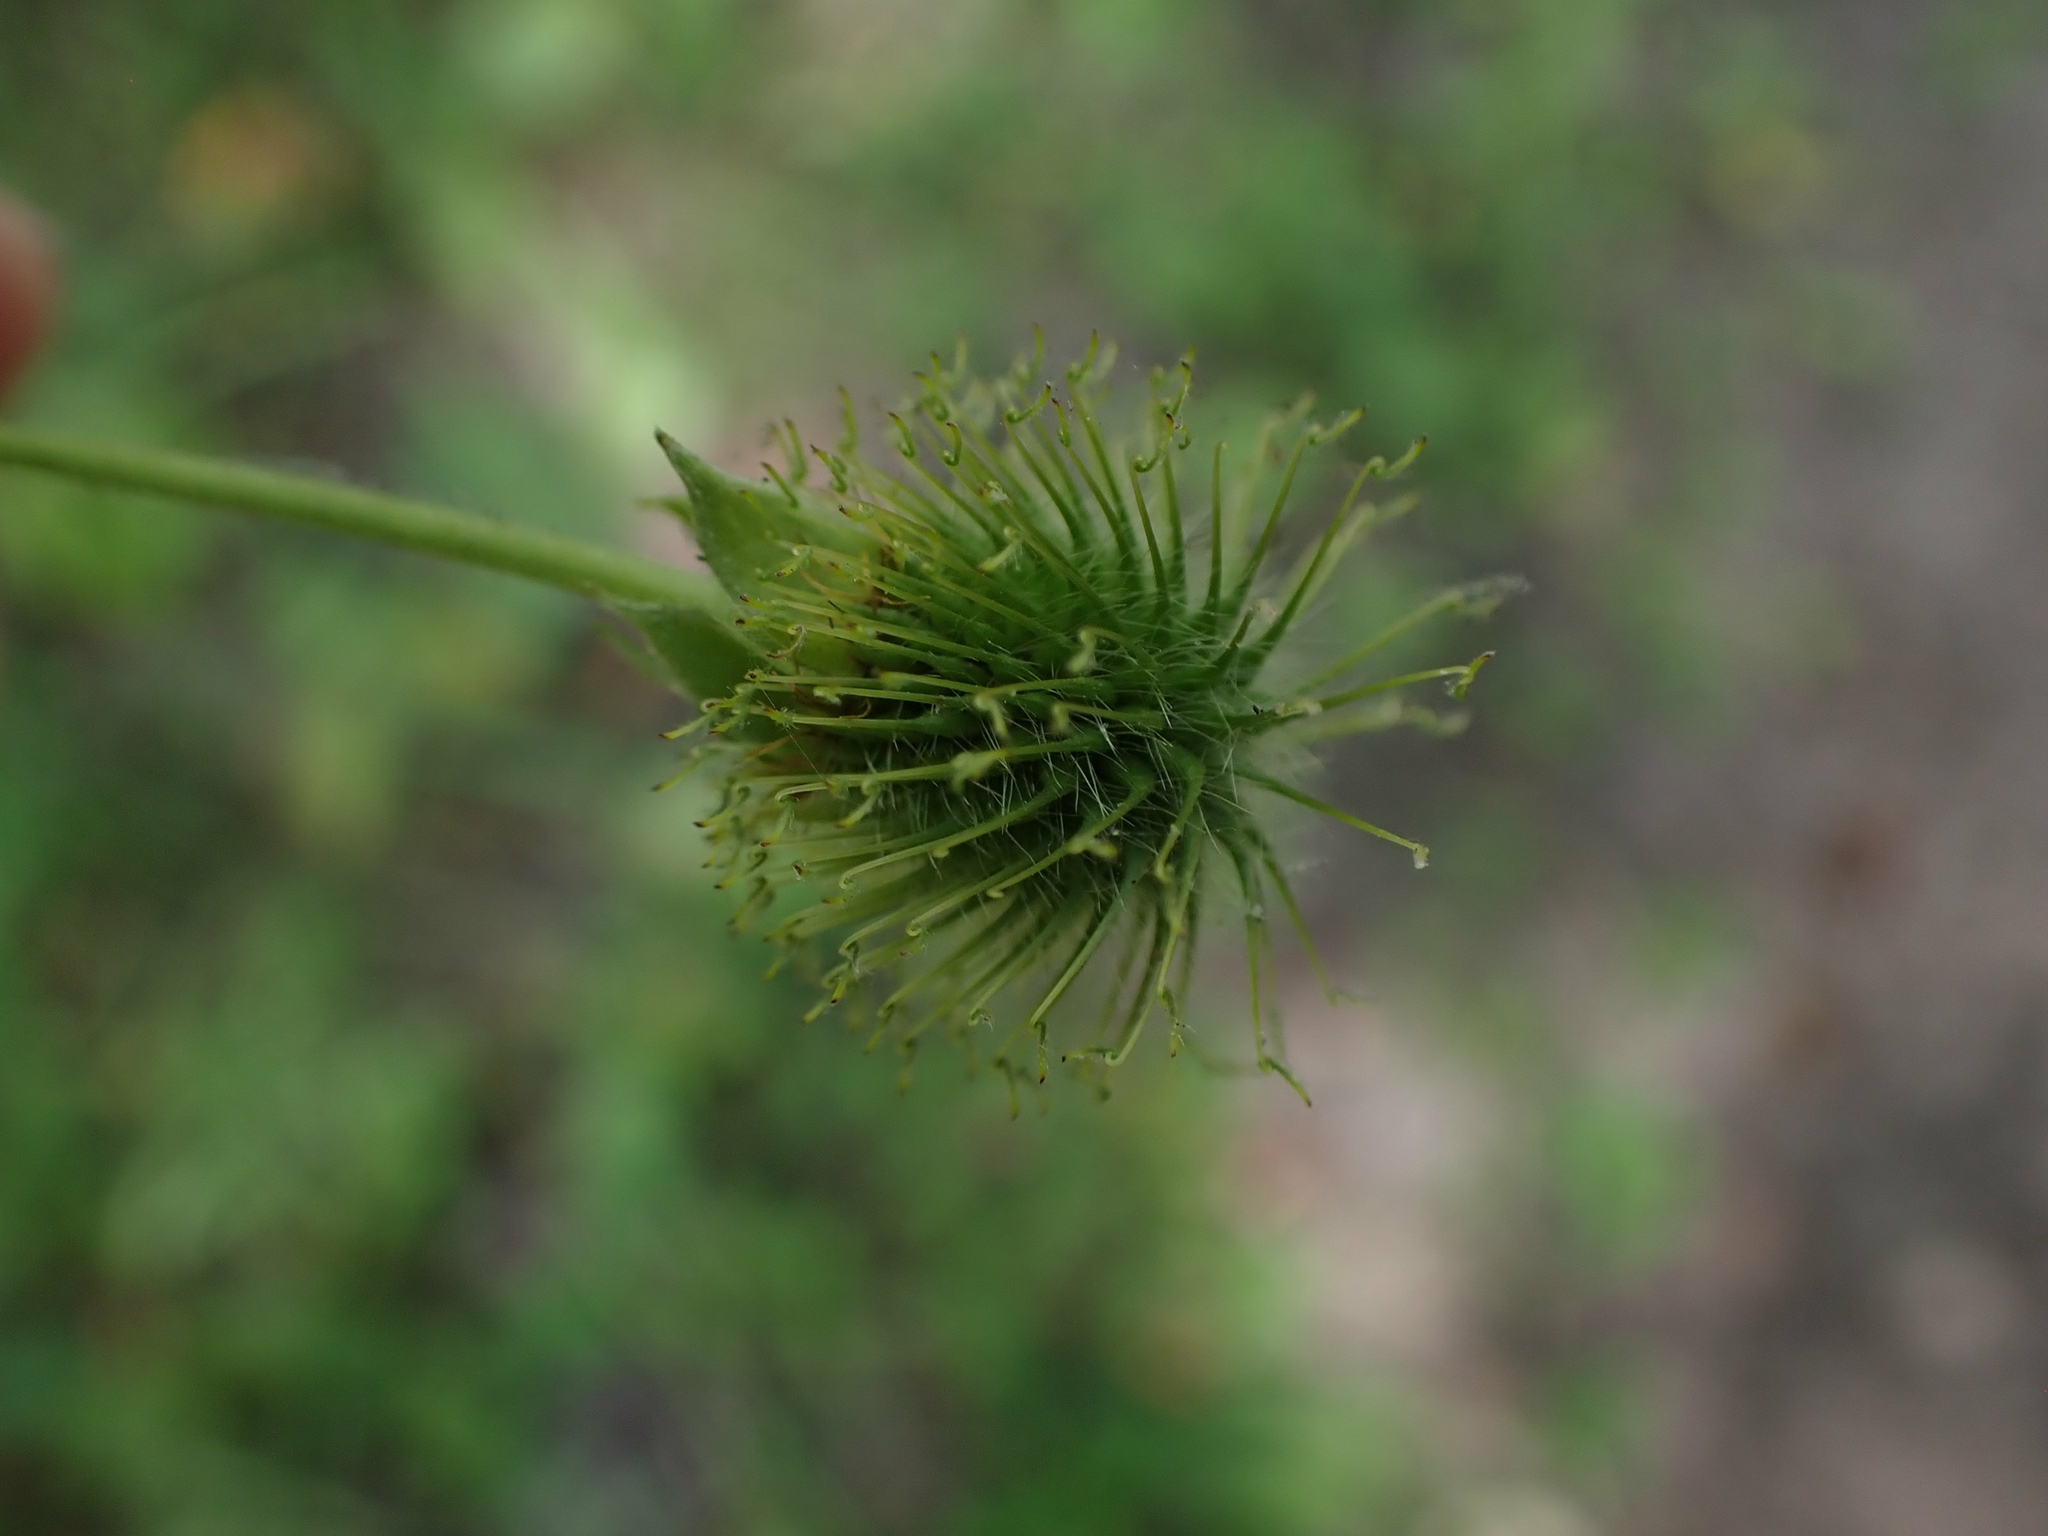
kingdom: Plantae
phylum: Tracheophyta
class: Magnoliopsida
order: Rosales
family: Rosaceae
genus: Geum
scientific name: Geum aleppicum
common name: Yellow avens
